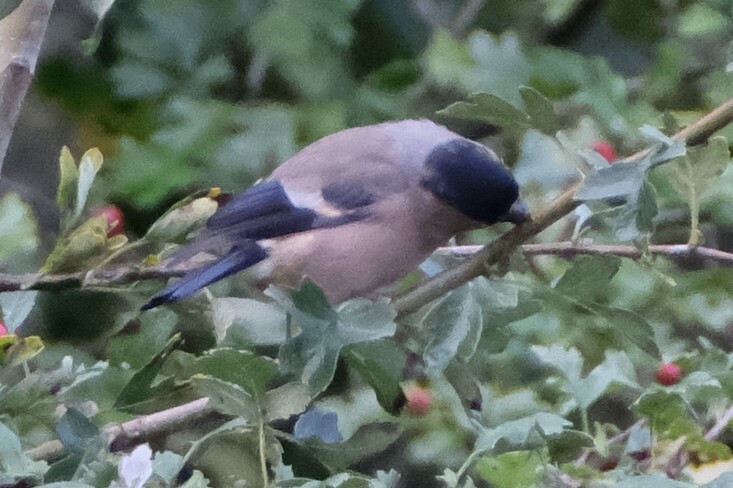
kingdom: Animalia
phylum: Chordata
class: Aves
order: Passeriformes
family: Fringillidae
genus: Pyrrhula
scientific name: Pyrrhula pyrrhula
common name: Eurasian bullfinch
